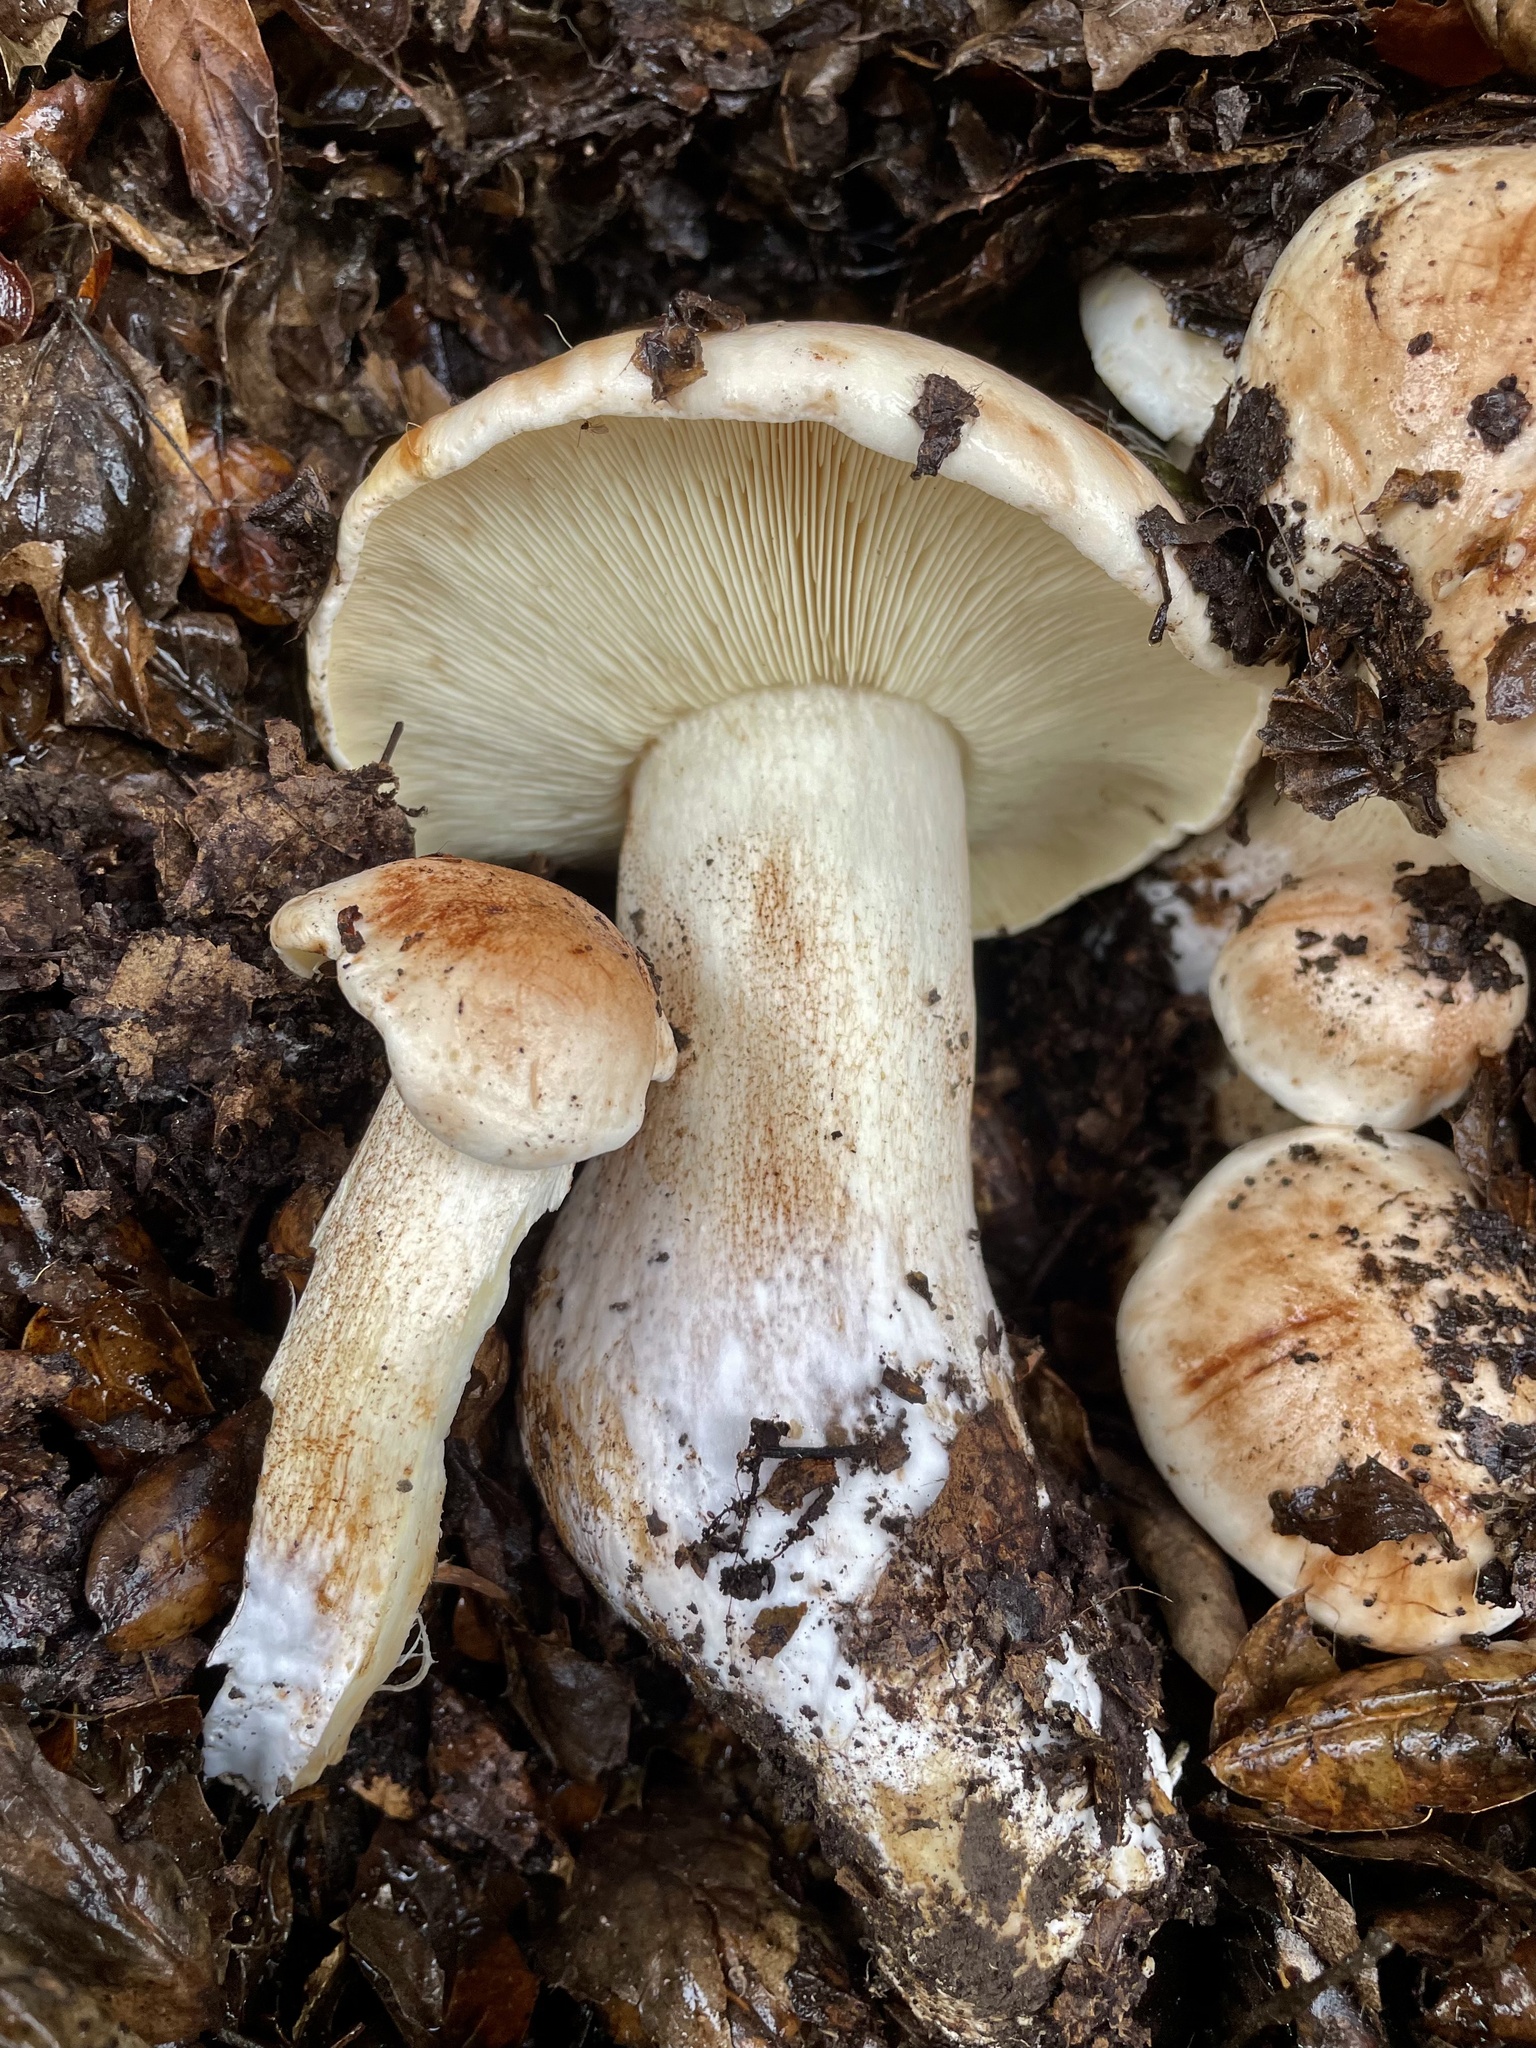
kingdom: Fungi
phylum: Basidiomycota
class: Agaricomycetes
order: Agaricales
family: Tricholomataceae
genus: Melanoleuca
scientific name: Melanoleuca dryophila
